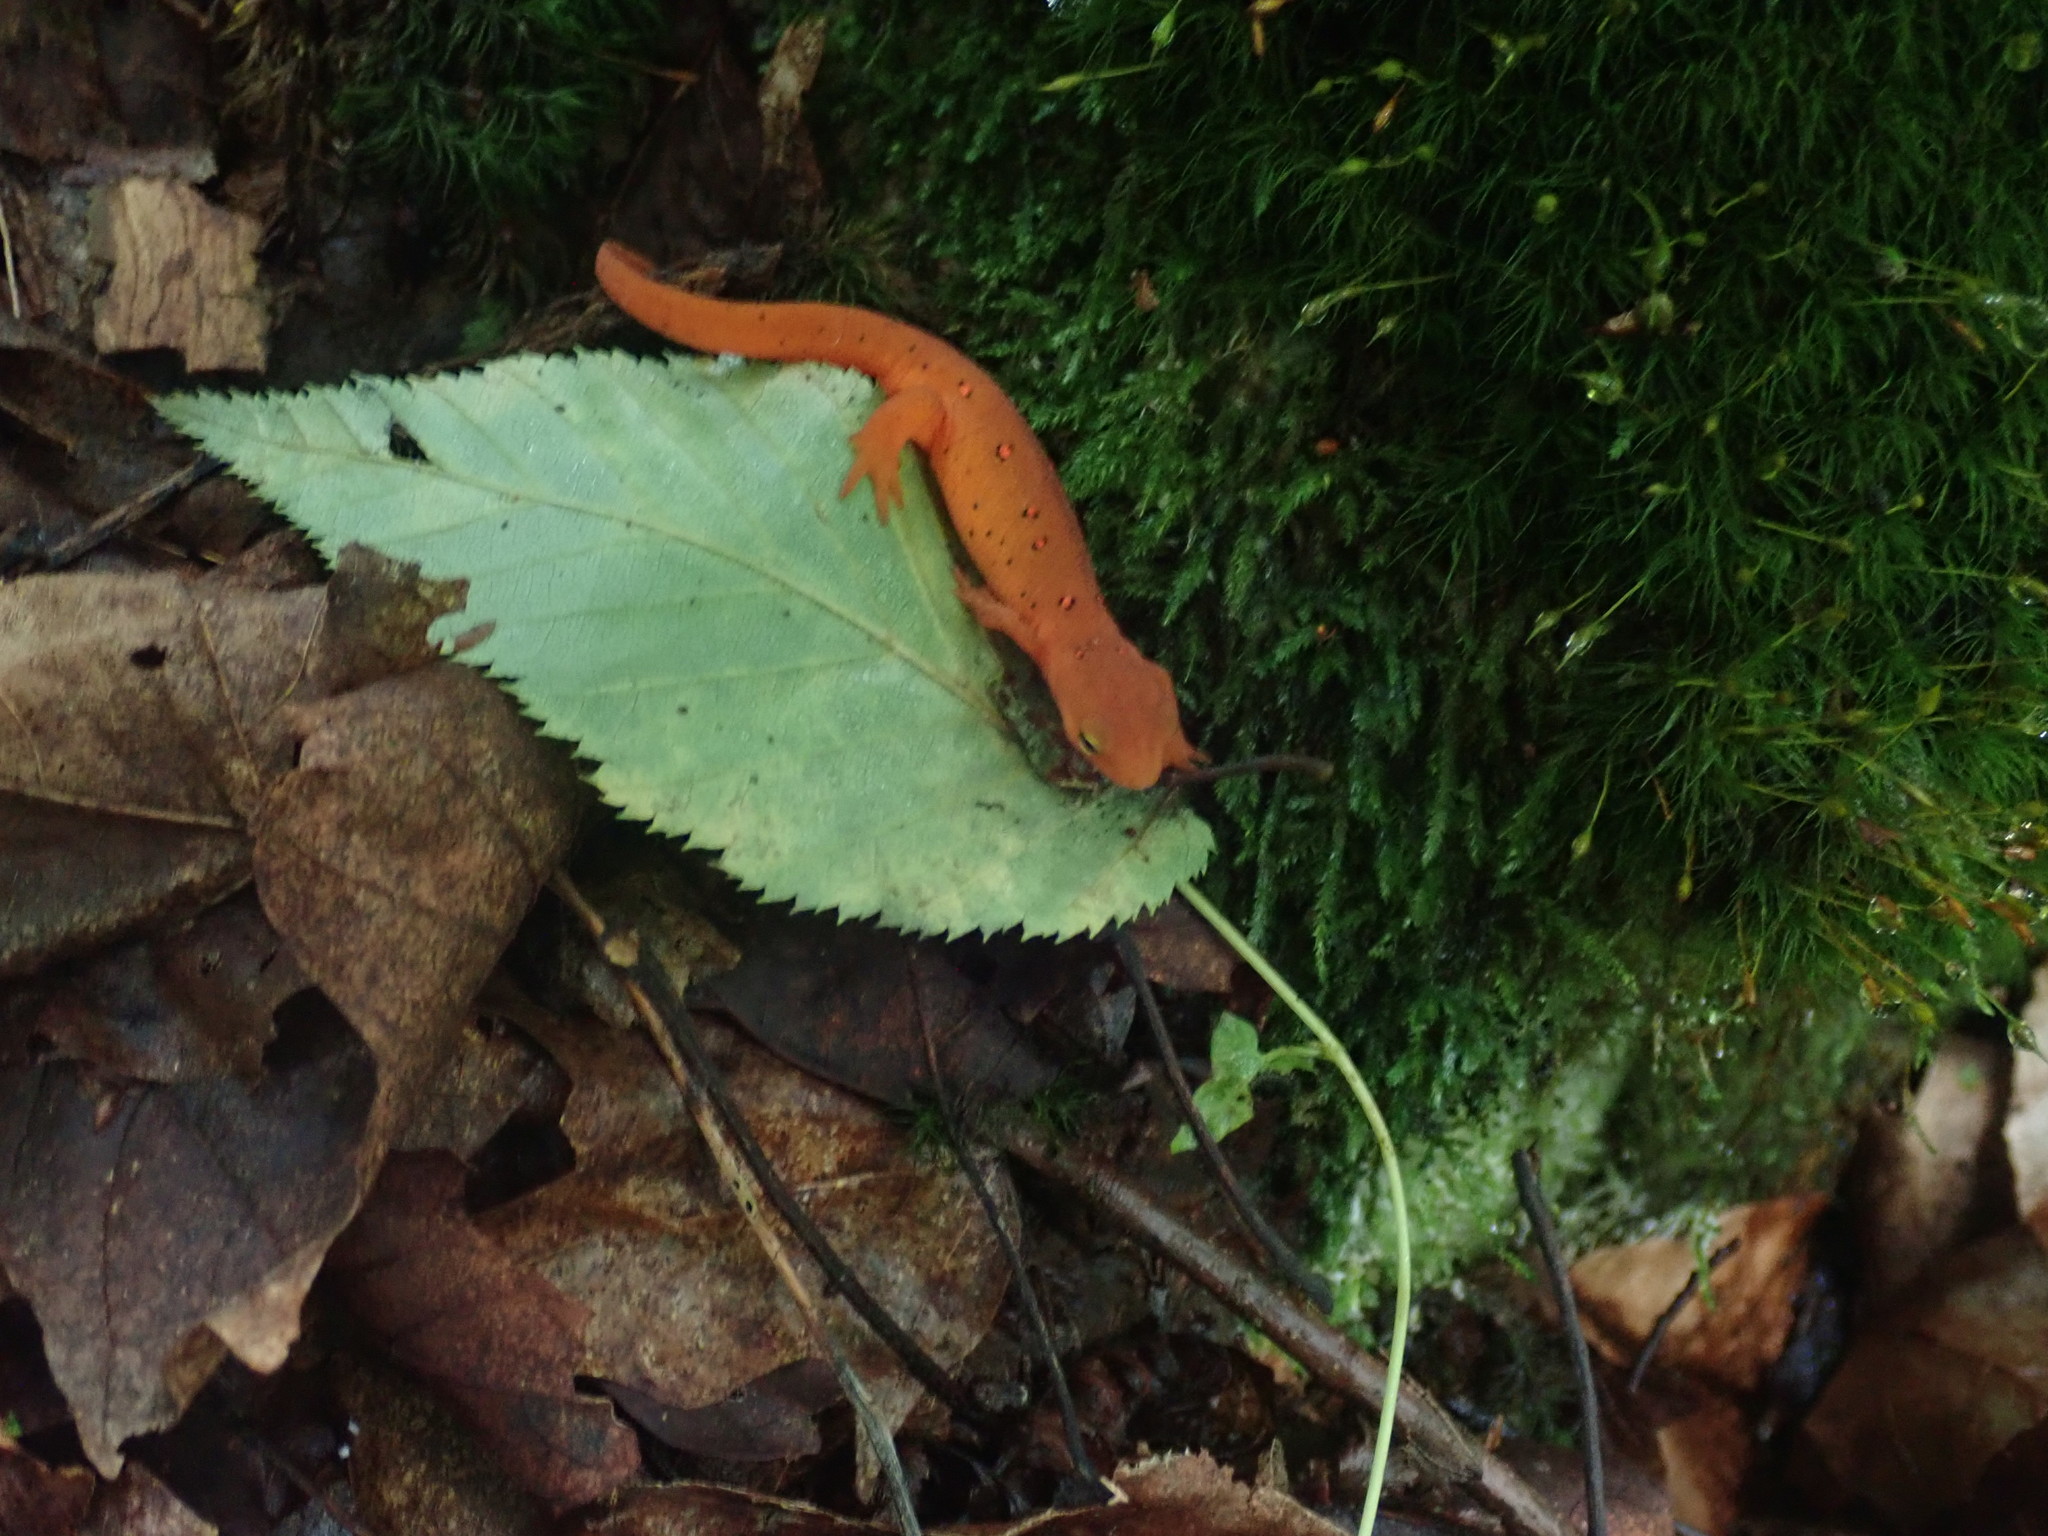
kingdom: Animalia
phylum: Chordata
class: Amphibia
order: Caudata
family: Salamandridae
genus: Notophthalmus
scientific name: Notophthalmus viridescens
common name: Eastern newt
